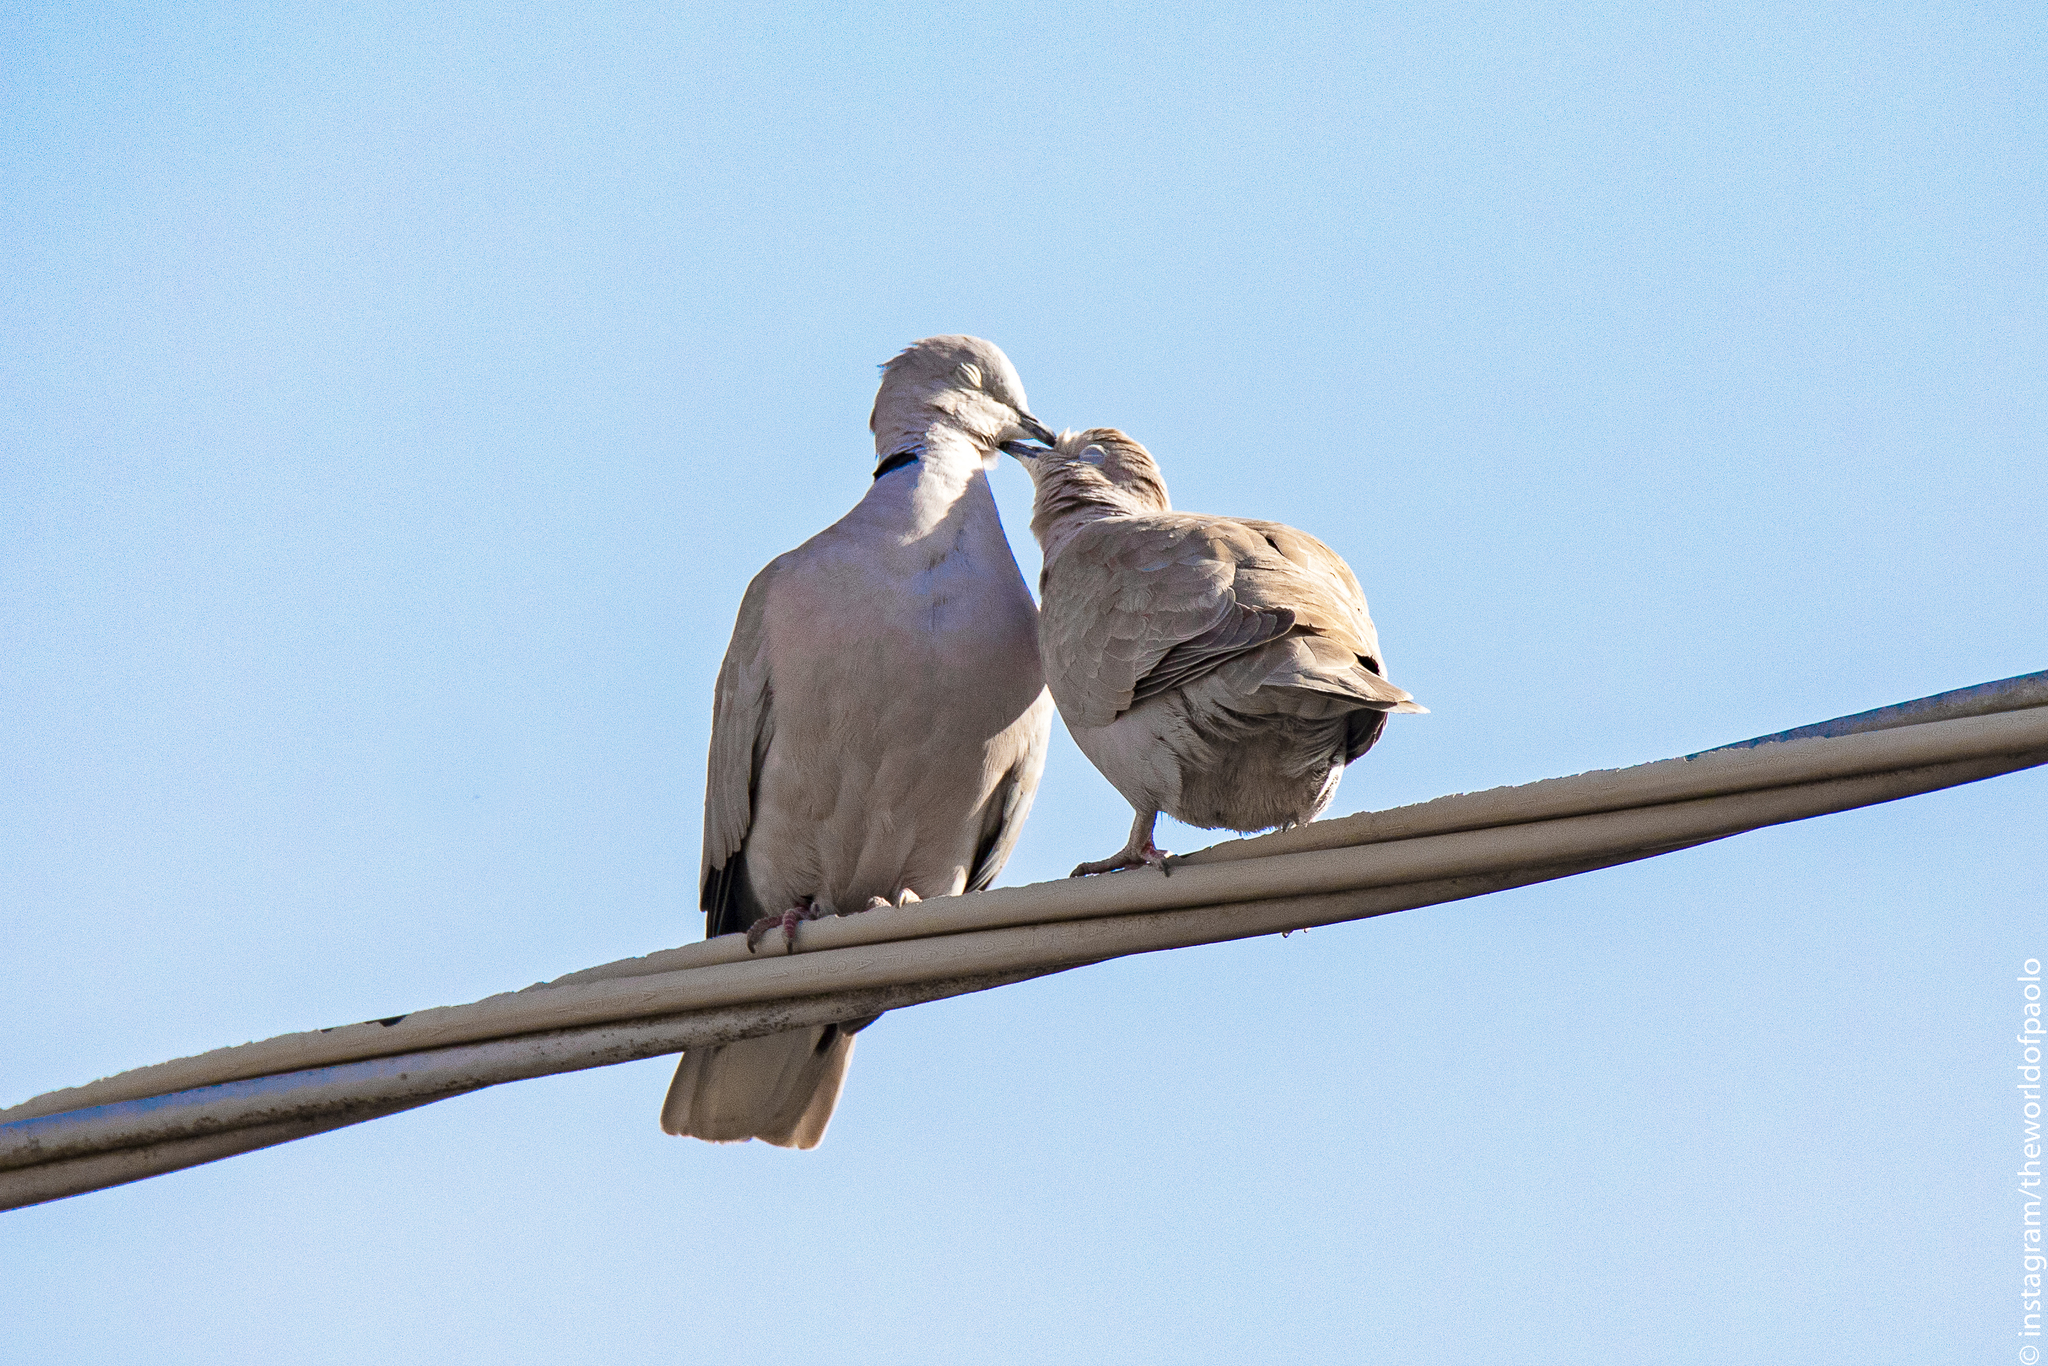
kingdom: Animalia
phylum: Chordata
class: Aves
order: Columbiformes
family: Columbidae
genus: Streptopelia
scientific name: Streptopelia decaocto
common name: Eurasian collared dove
